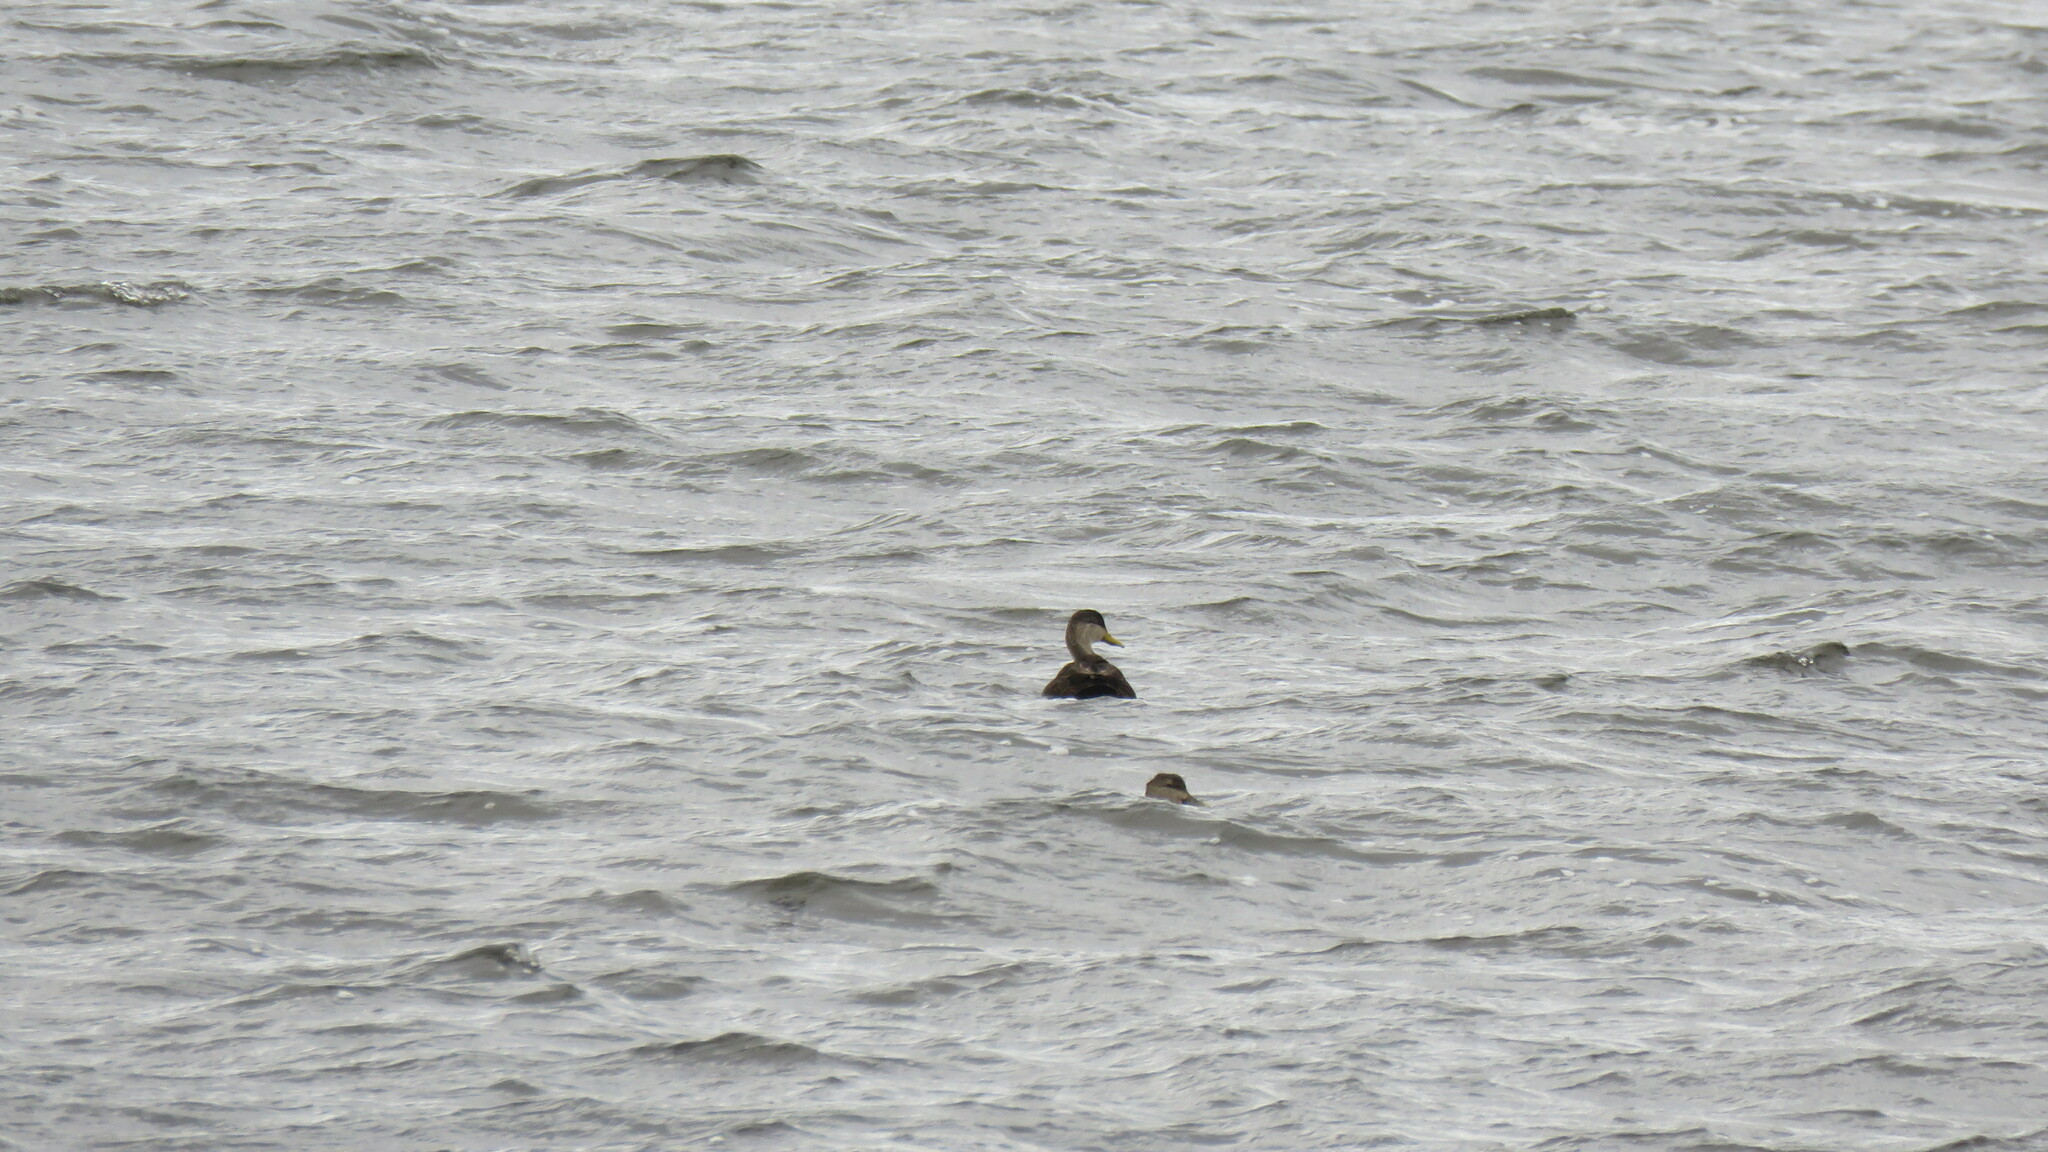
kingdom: Animalia
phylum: Chordata
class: Aves
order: Anseriformes
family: Anatidae
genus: Anas
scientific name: Anas rubripes
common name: American black duck
